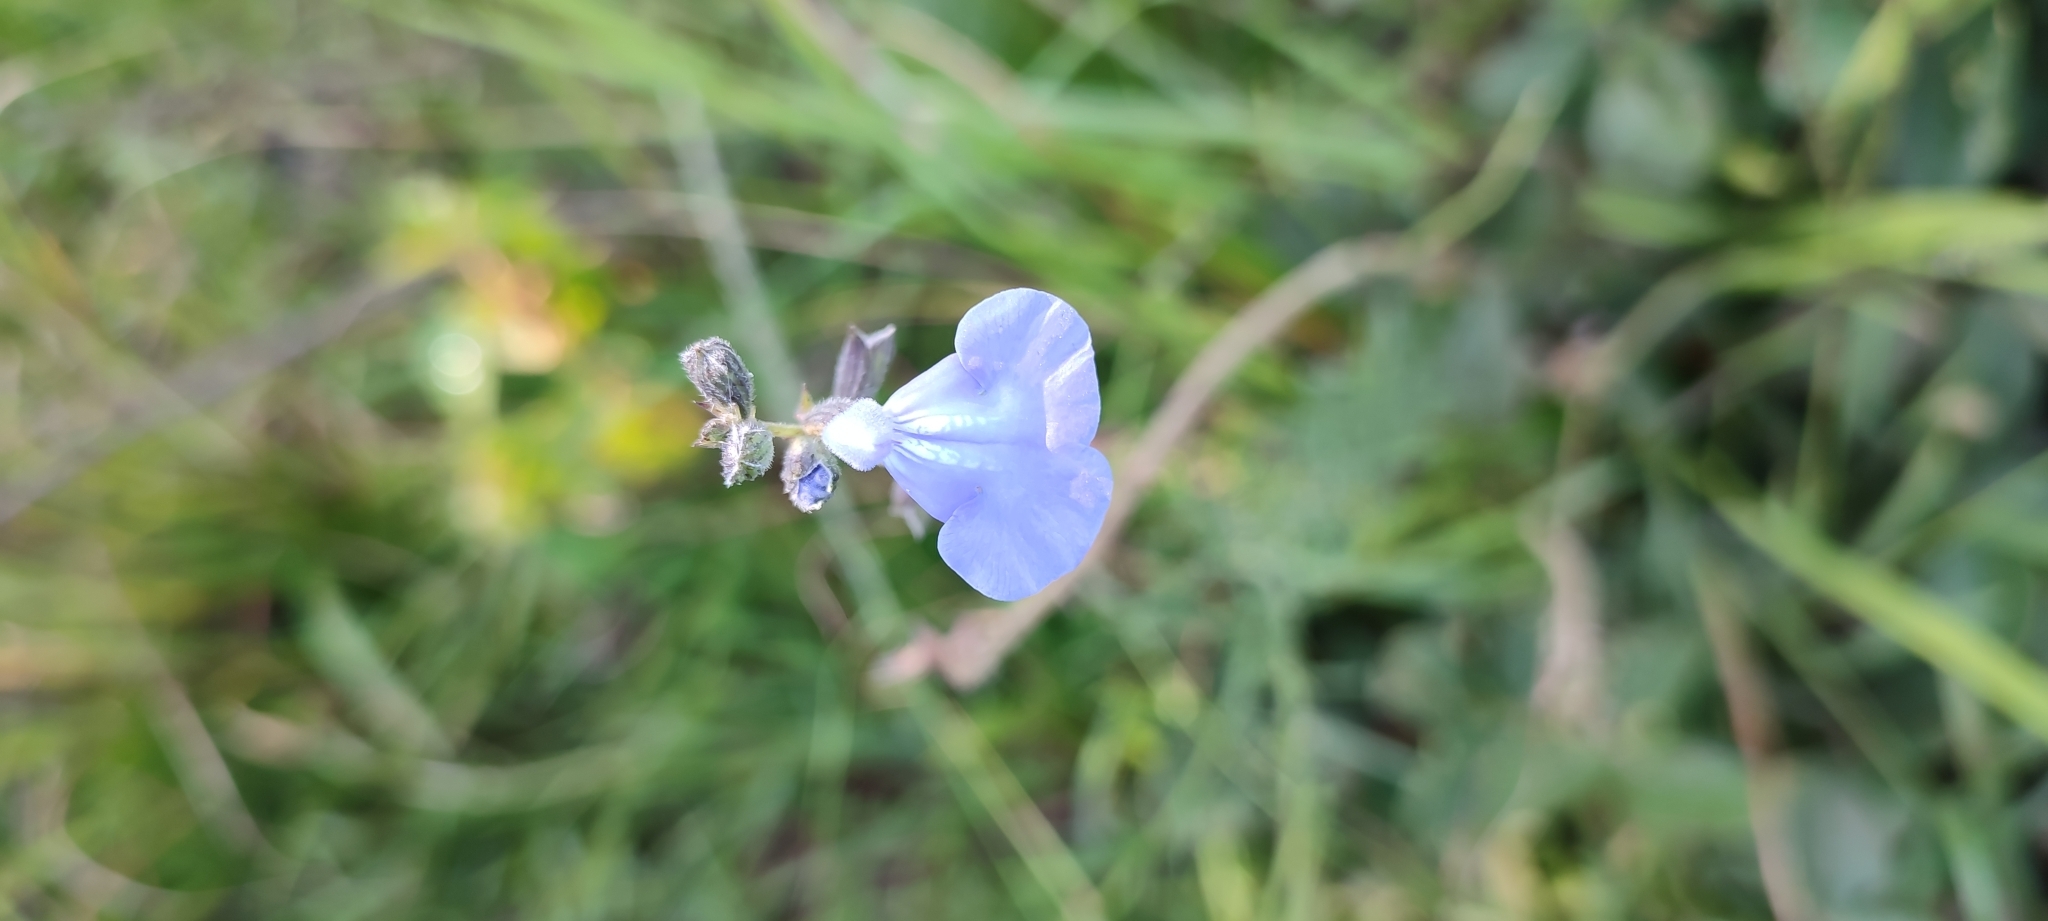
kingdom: Plantae
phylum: Tracheophyta
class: Magnoliopsida
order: Lamiales
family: Lamiaceae
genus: Salvia
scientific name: Salvia reptans
